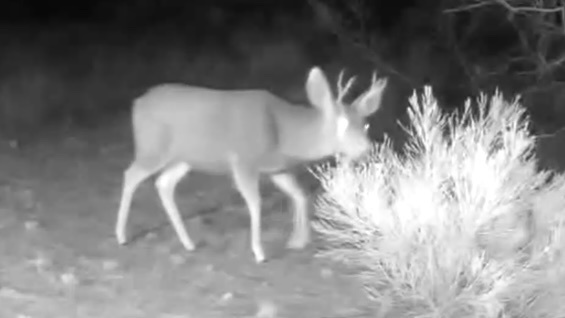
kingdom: Animalia
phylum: Chordata
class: Mammalia
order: Artiodactyla
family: Cervidae
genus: Odocoileus
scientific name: Odocoileus hemionus
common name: Mule deer
